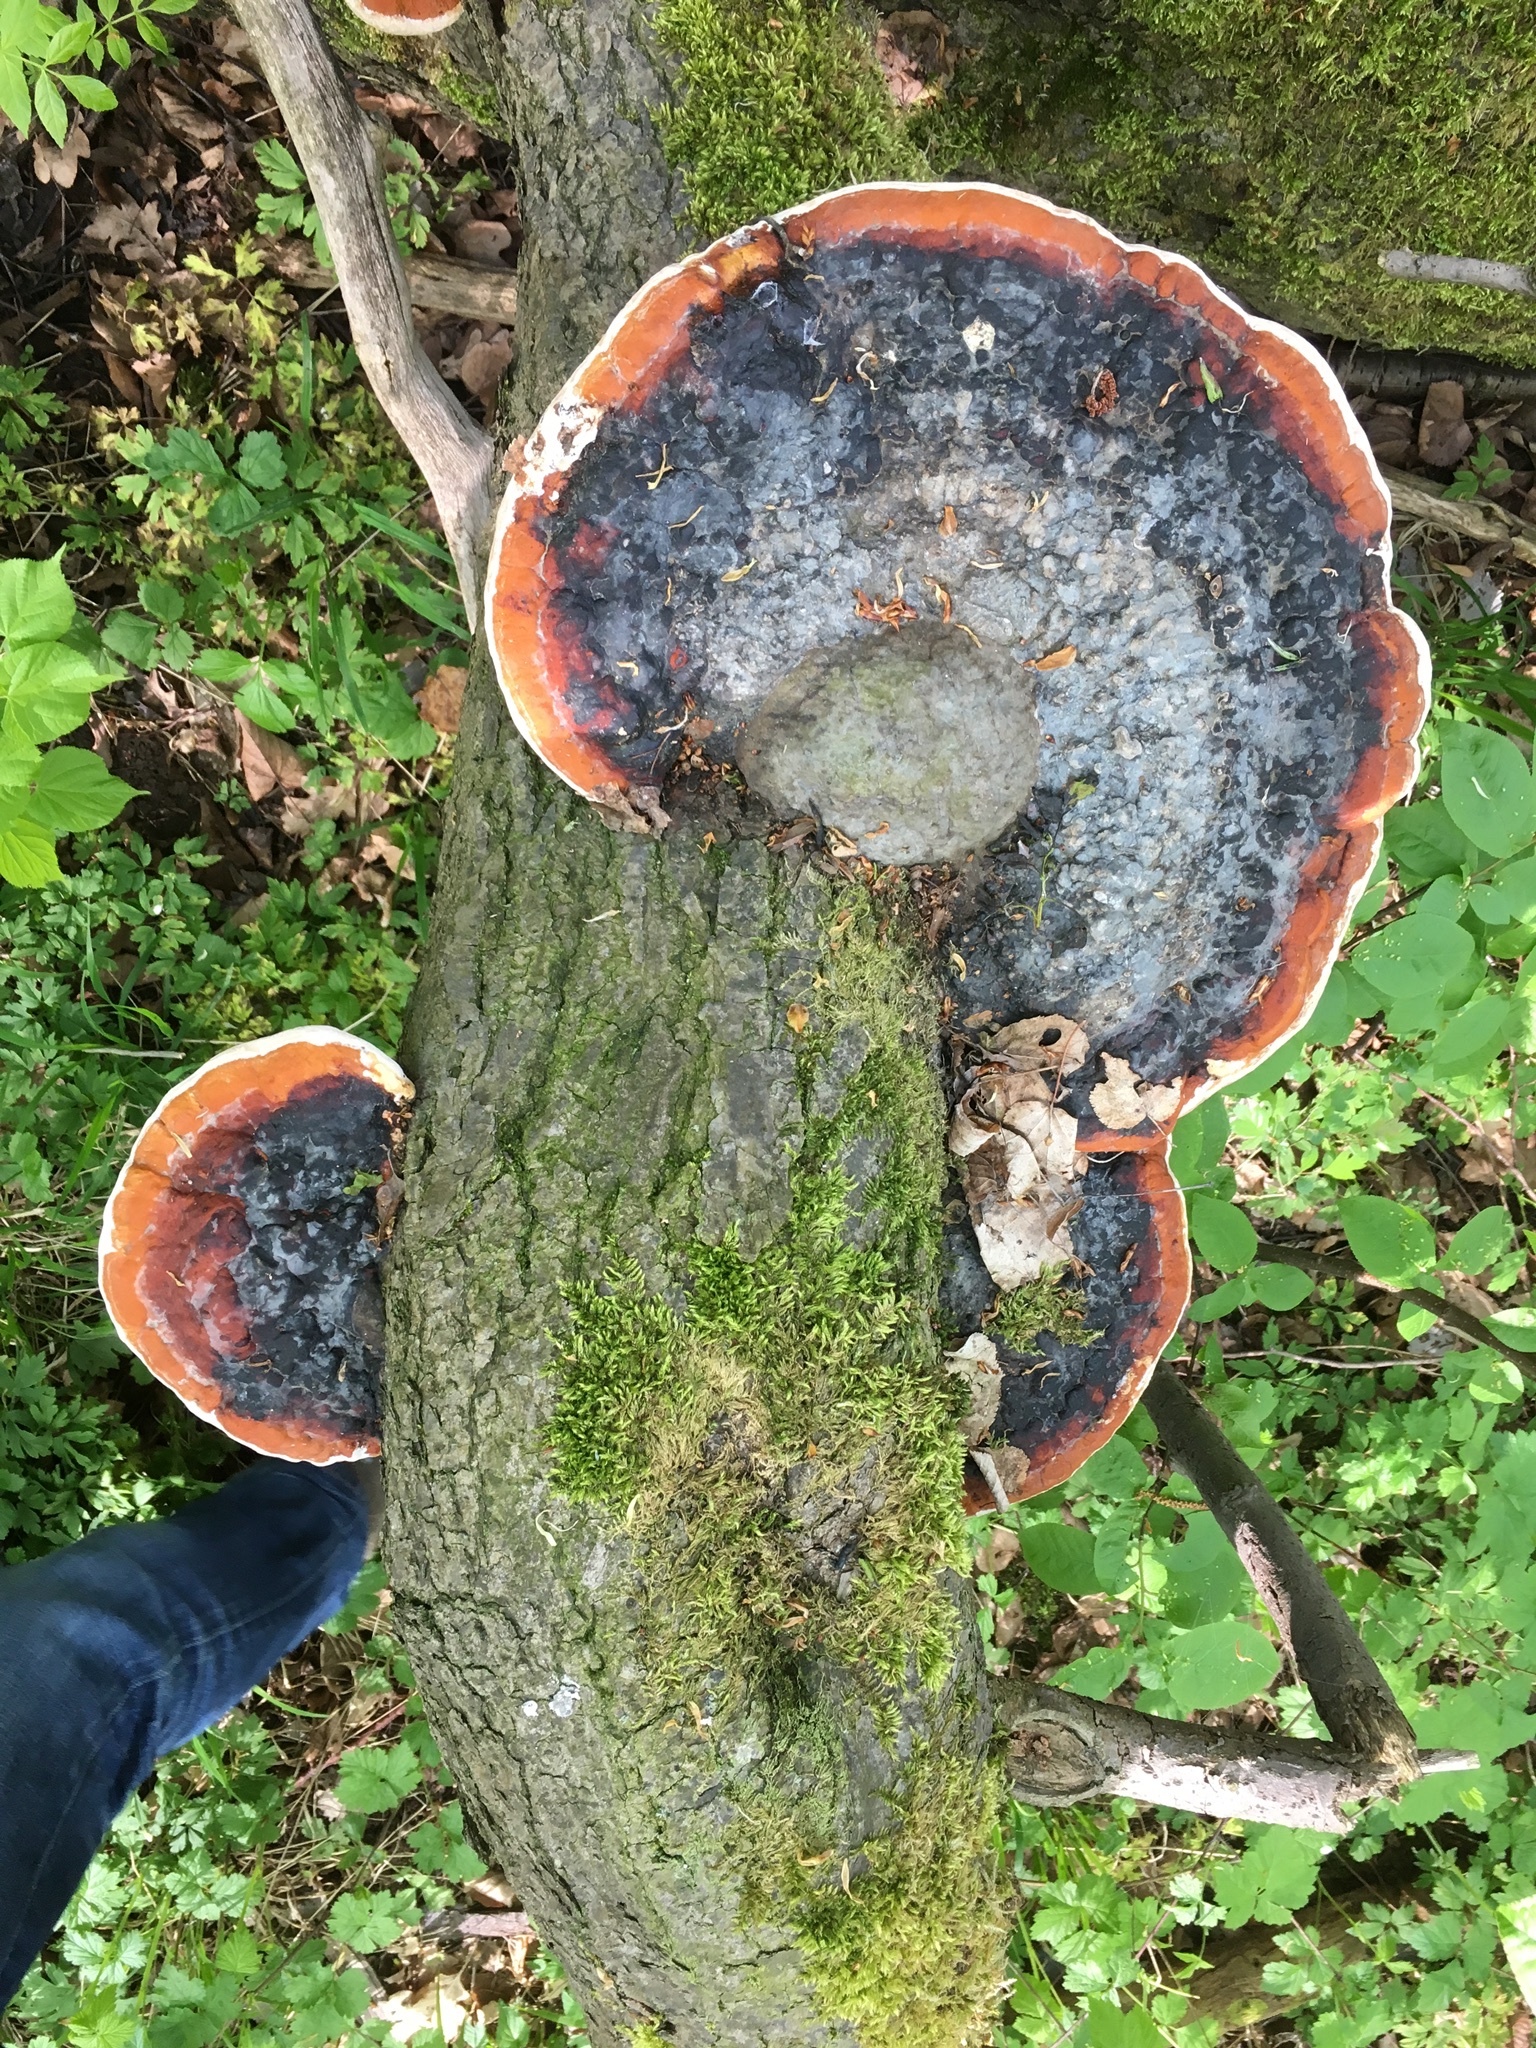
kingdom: Fungi
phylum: Basidiomycota
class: Agaricomycetes
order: Polyporales
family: Fomitopsidaceae
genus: Fomitopsis
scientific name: Fomitopsis pinicola
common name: Red-belted bracket
